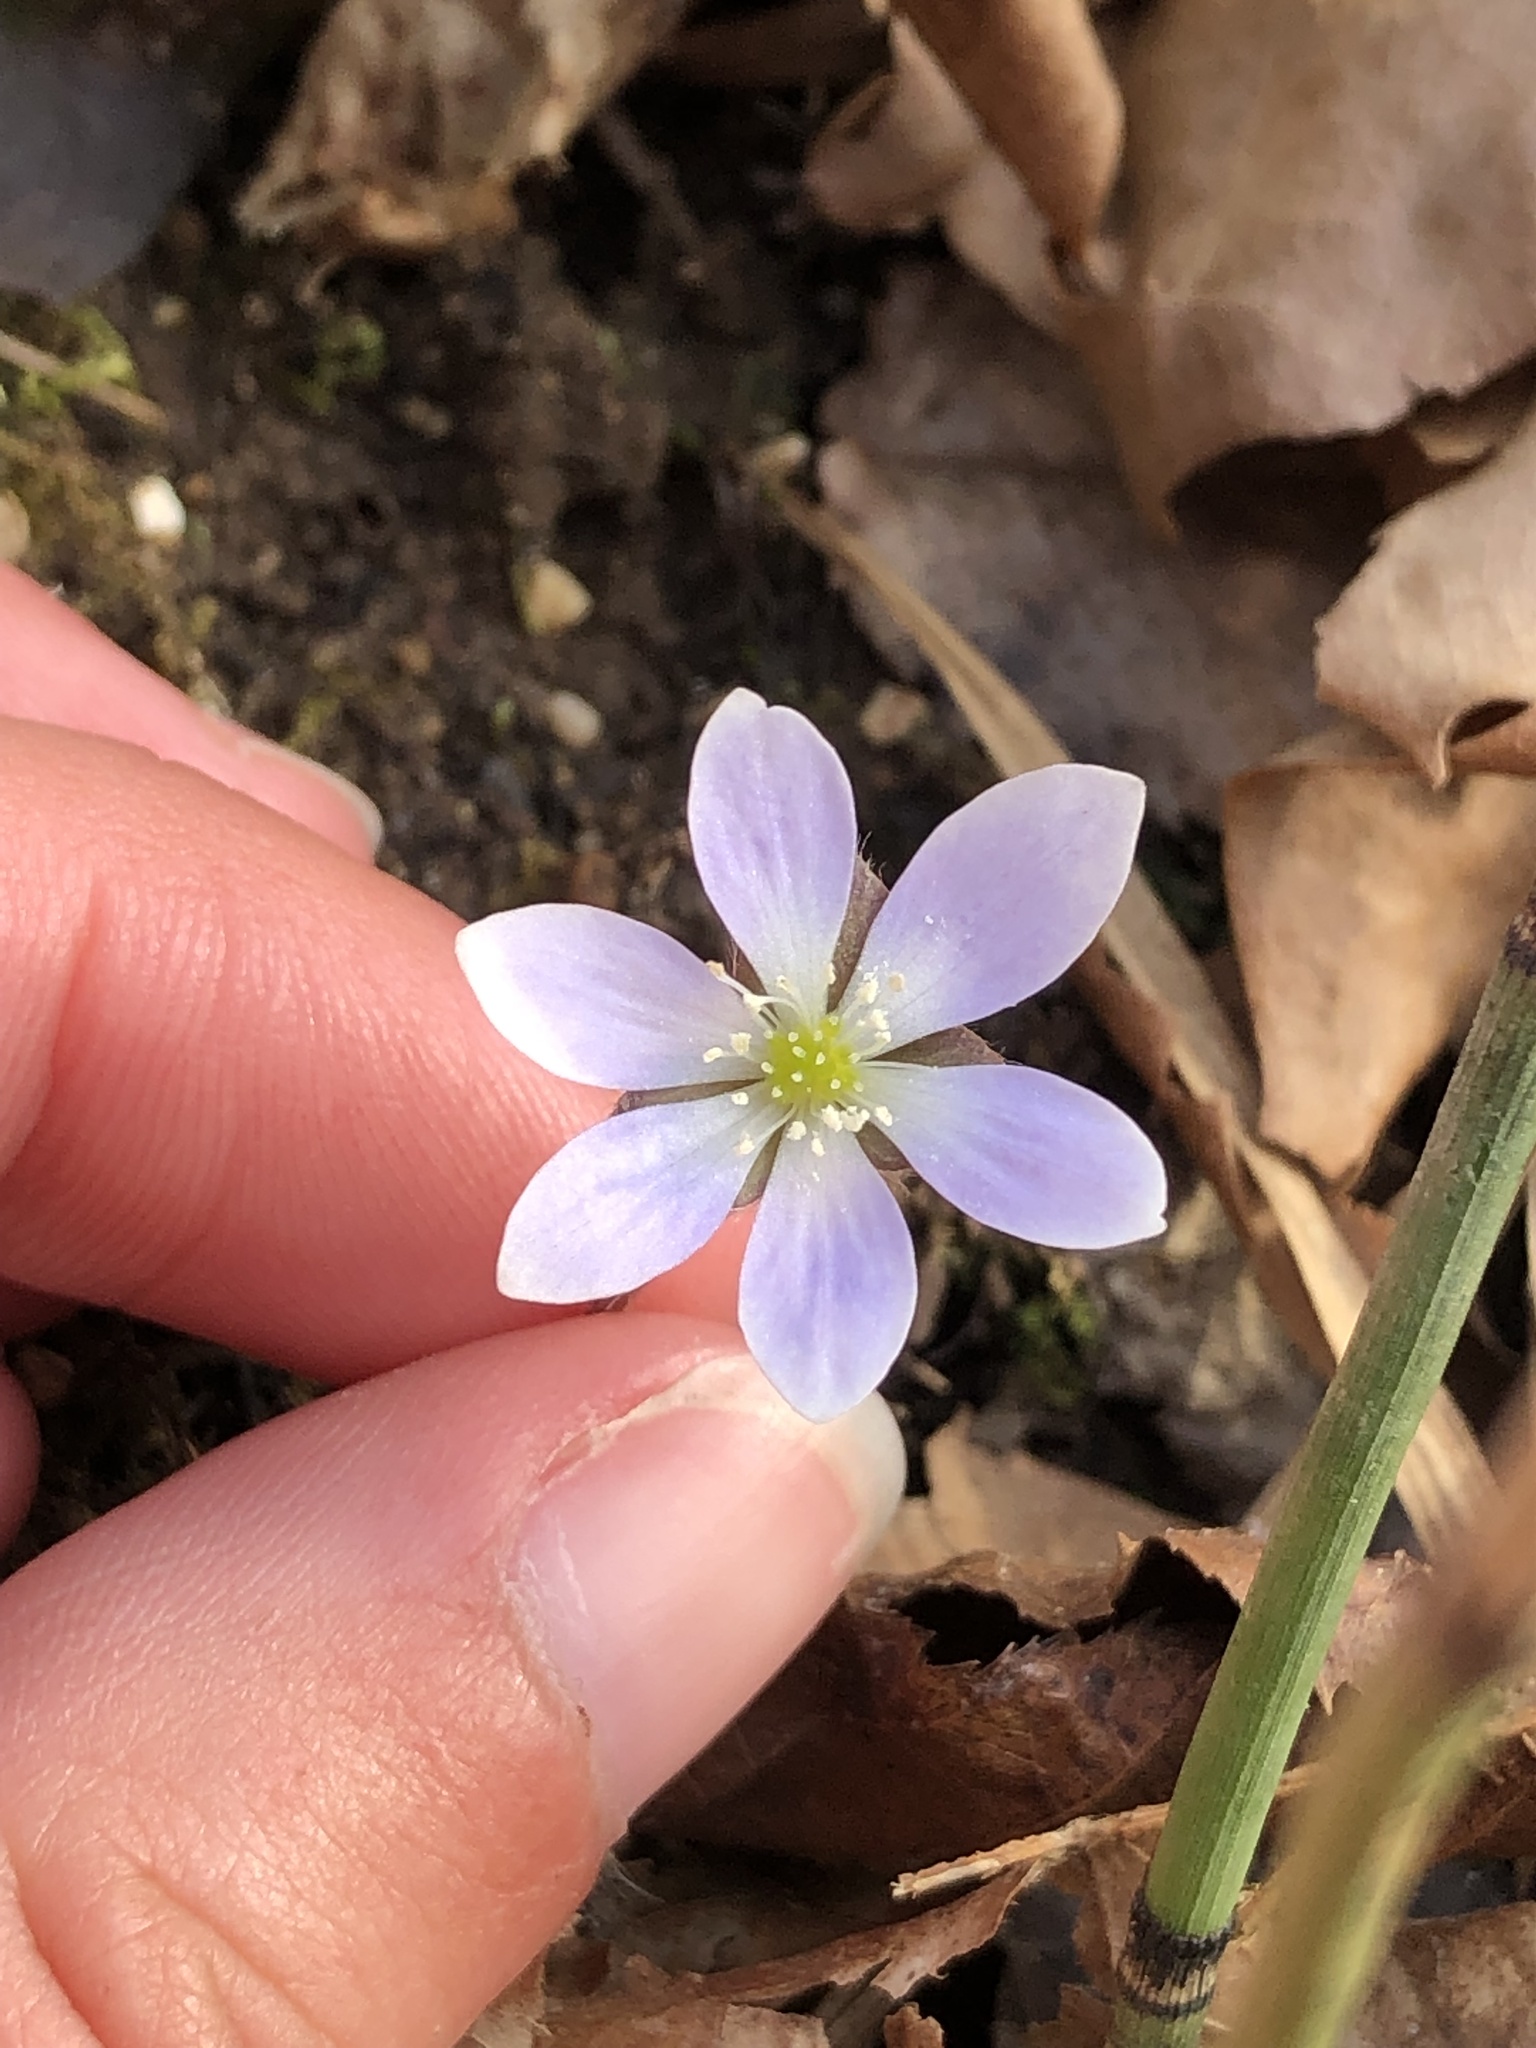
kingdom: Plantae
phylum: Tracheophyta
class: Magnoliopsida
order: Ranunculales
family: Ranunculaceae
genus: Hepatica
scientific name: Hepatica americana
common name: American hepatica
